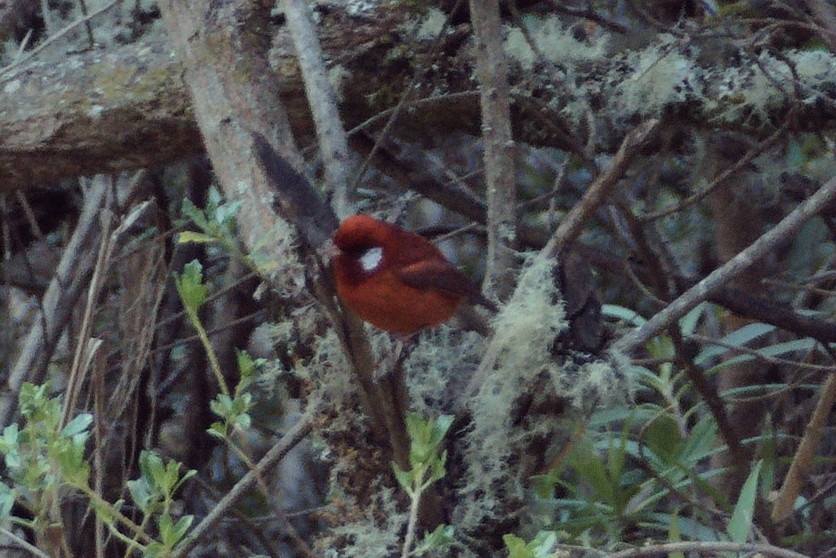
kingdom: Animalia
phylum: Chordata
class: Aves
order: Passeriformes
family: Parulidae
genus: Cardellina
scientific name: Cardellina rubra
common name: Red warbler
